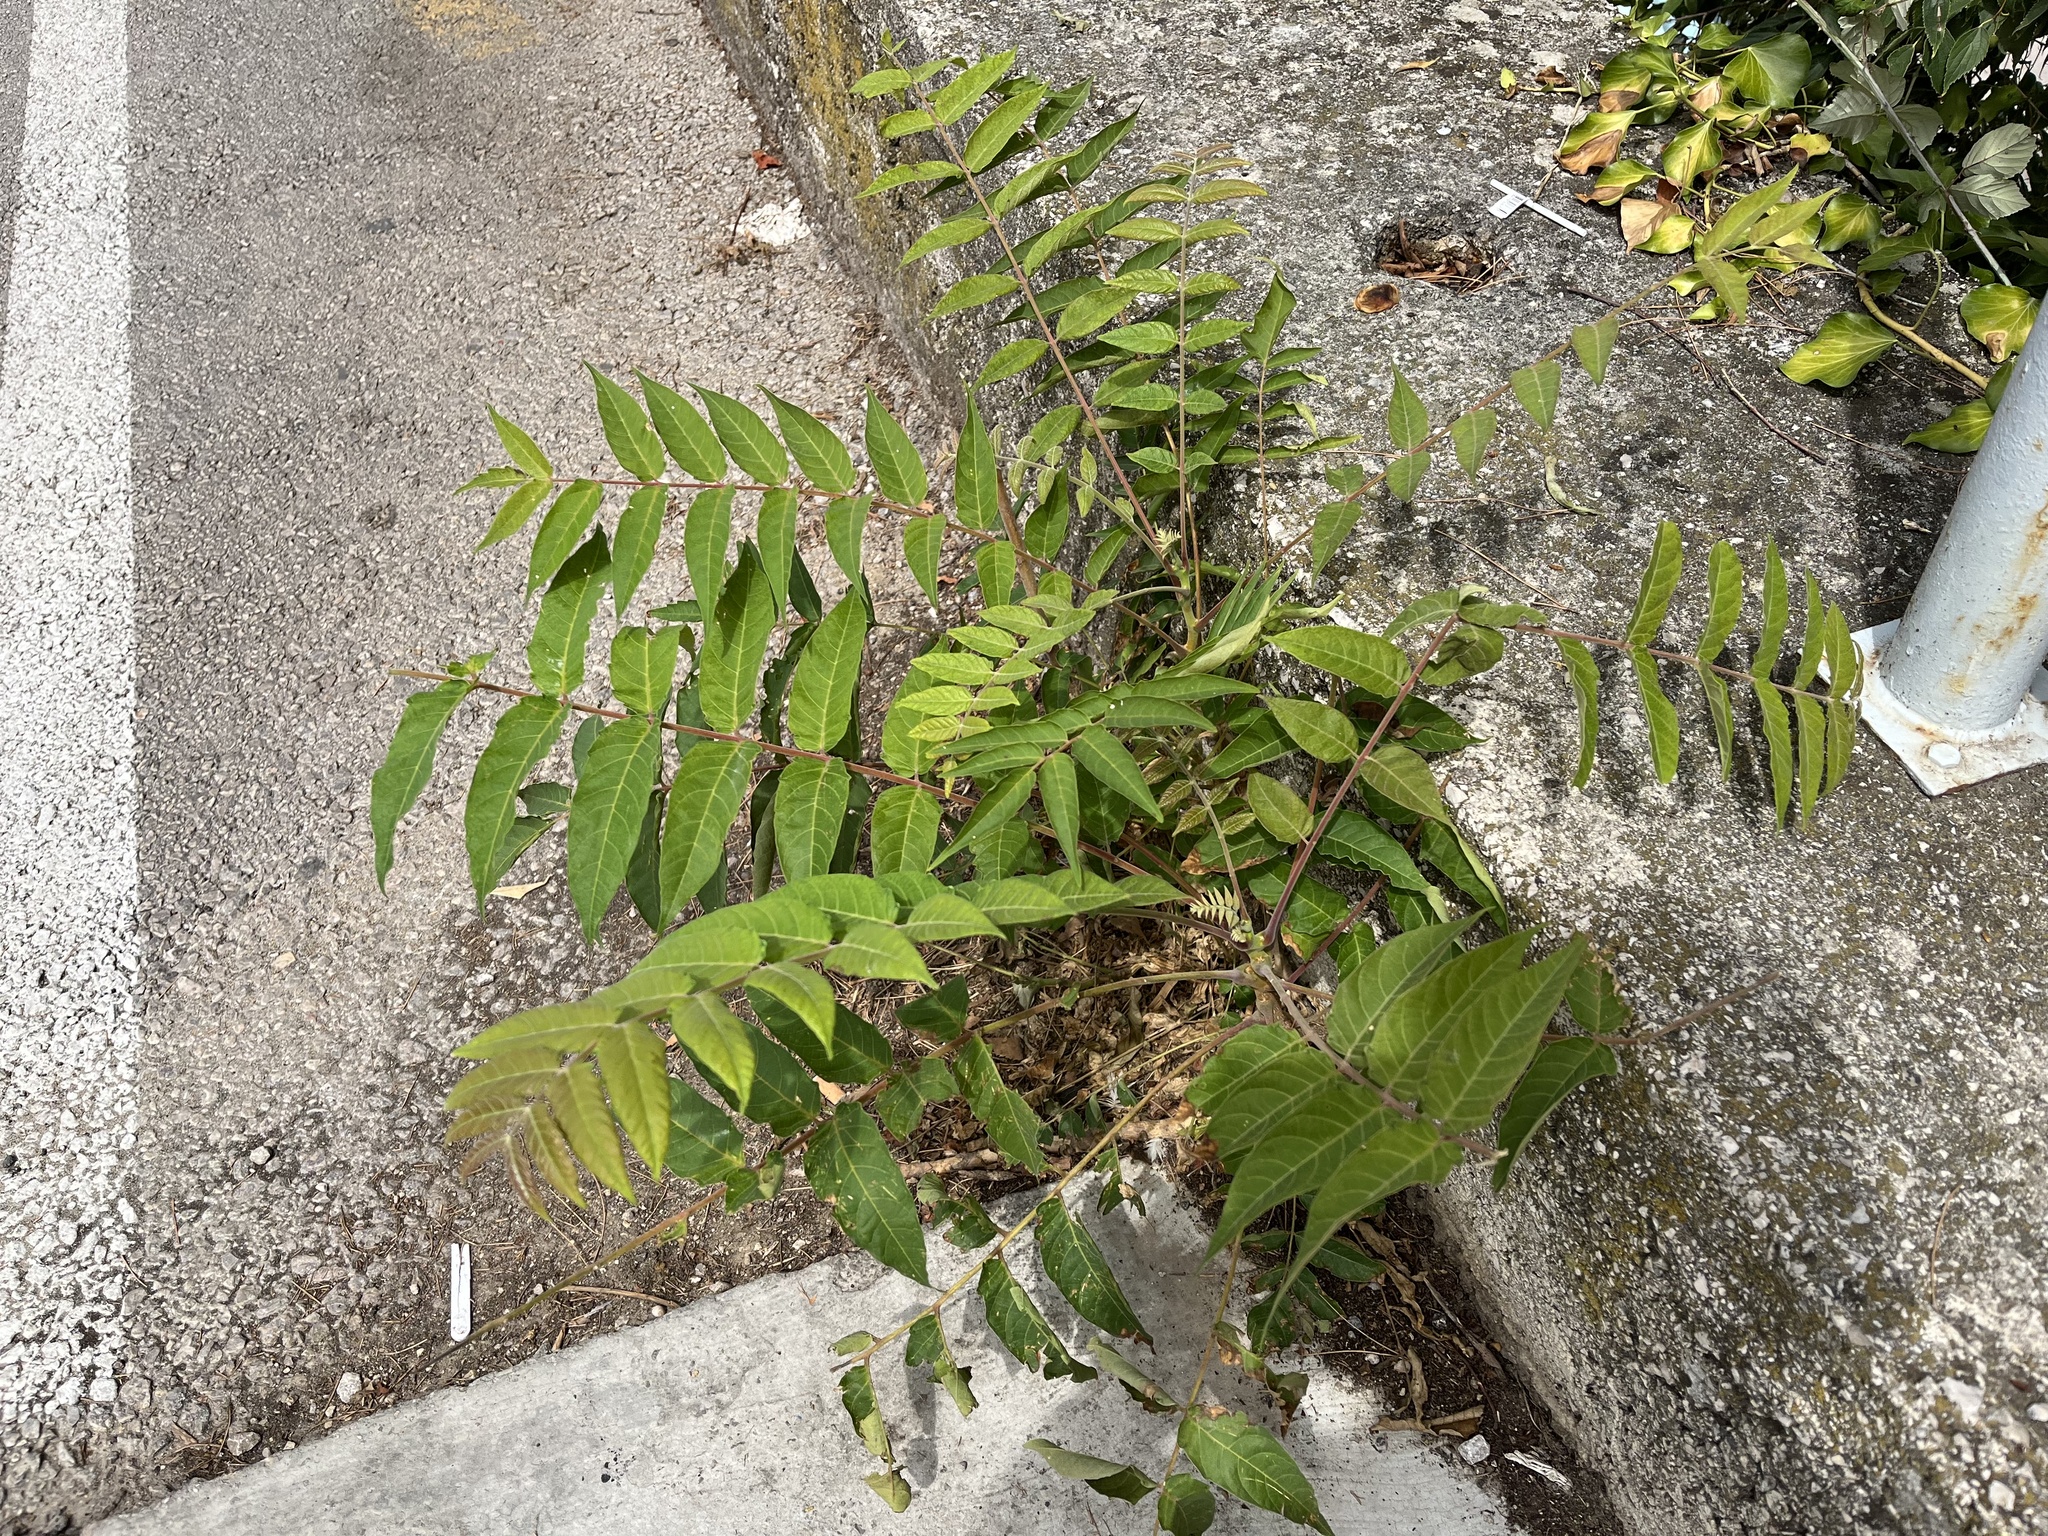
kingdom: Plantae
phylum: Tracheophyta
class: Magnoliopsida
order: Sapindales
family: Simaroubaceae
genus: Ailanthus
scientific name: Ailanthus altissima
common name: Tree-of-heaven
